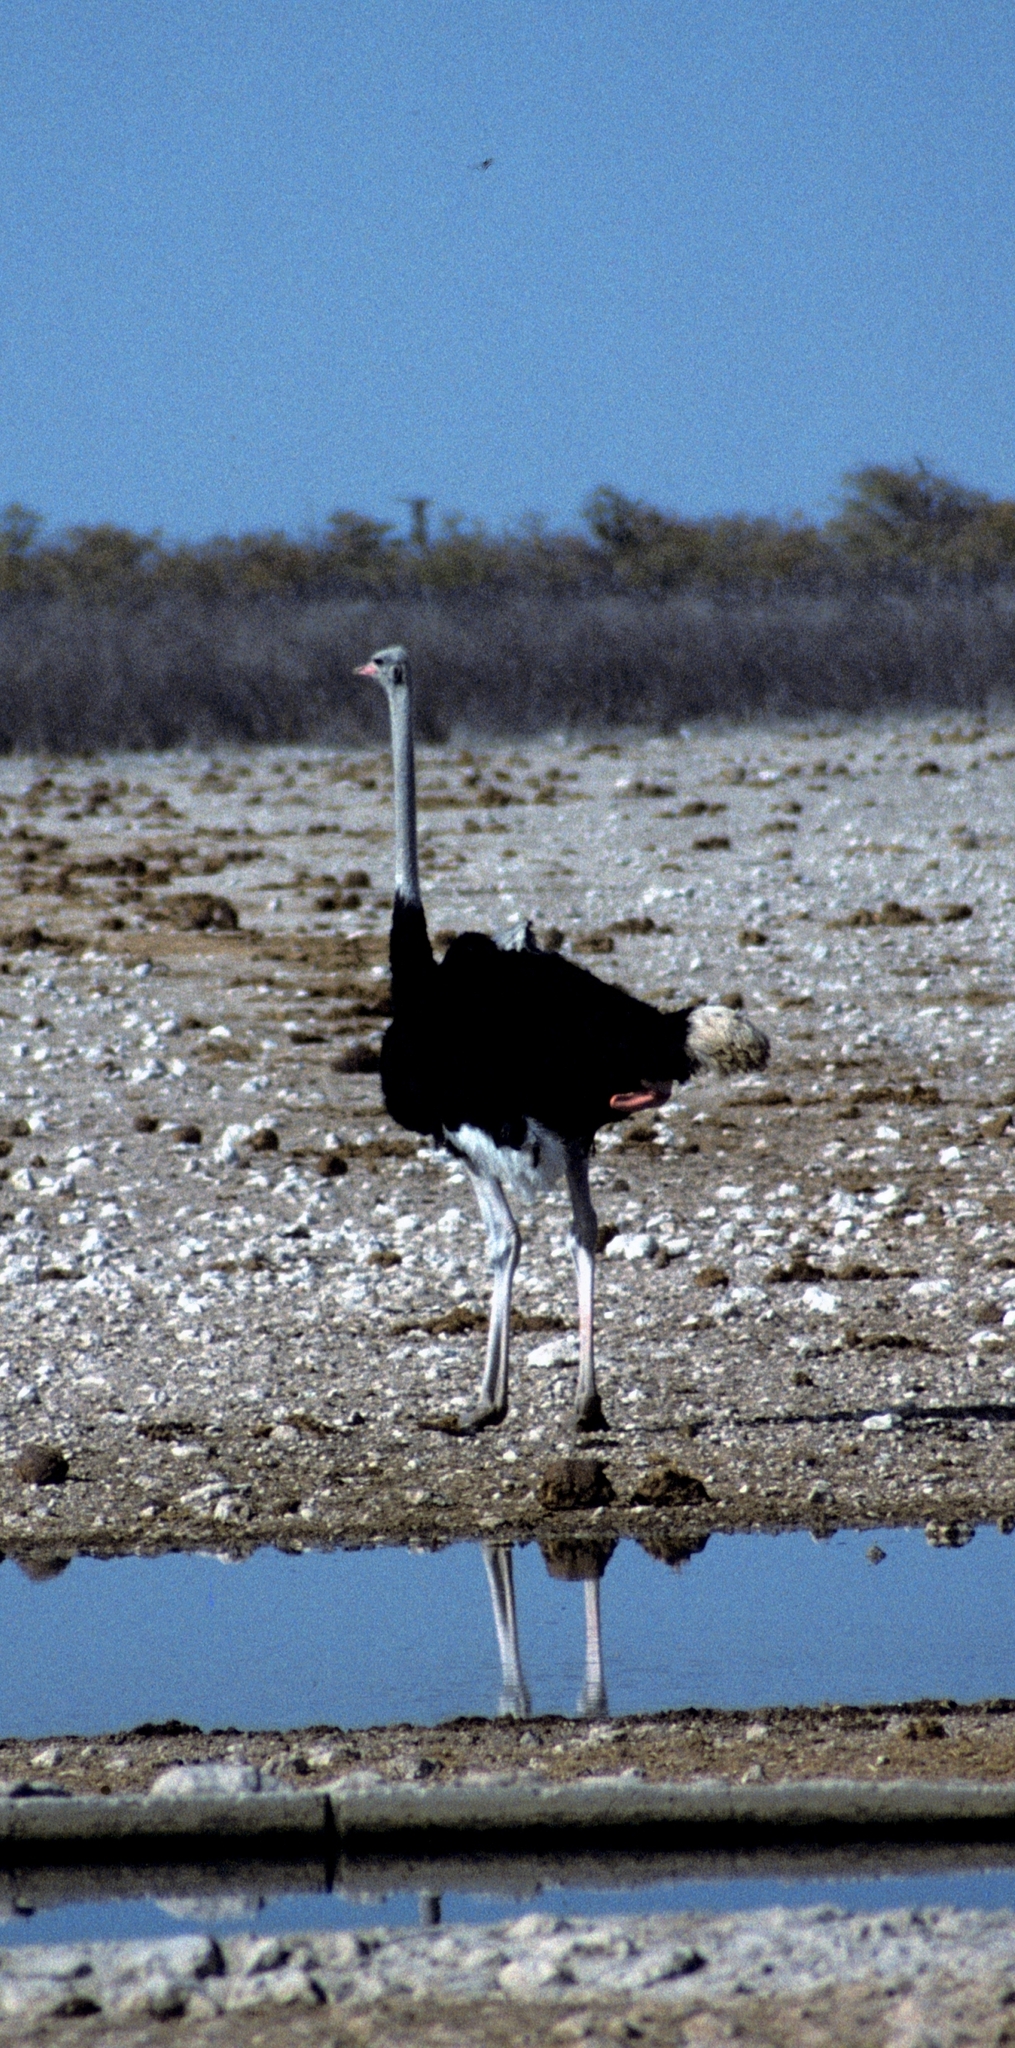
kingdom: Animalia
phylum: Chordata
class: Aves
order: Struthioniformes
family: Struthionidae
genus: Struthio
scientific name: Struthio camelus
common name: Common ostrich
